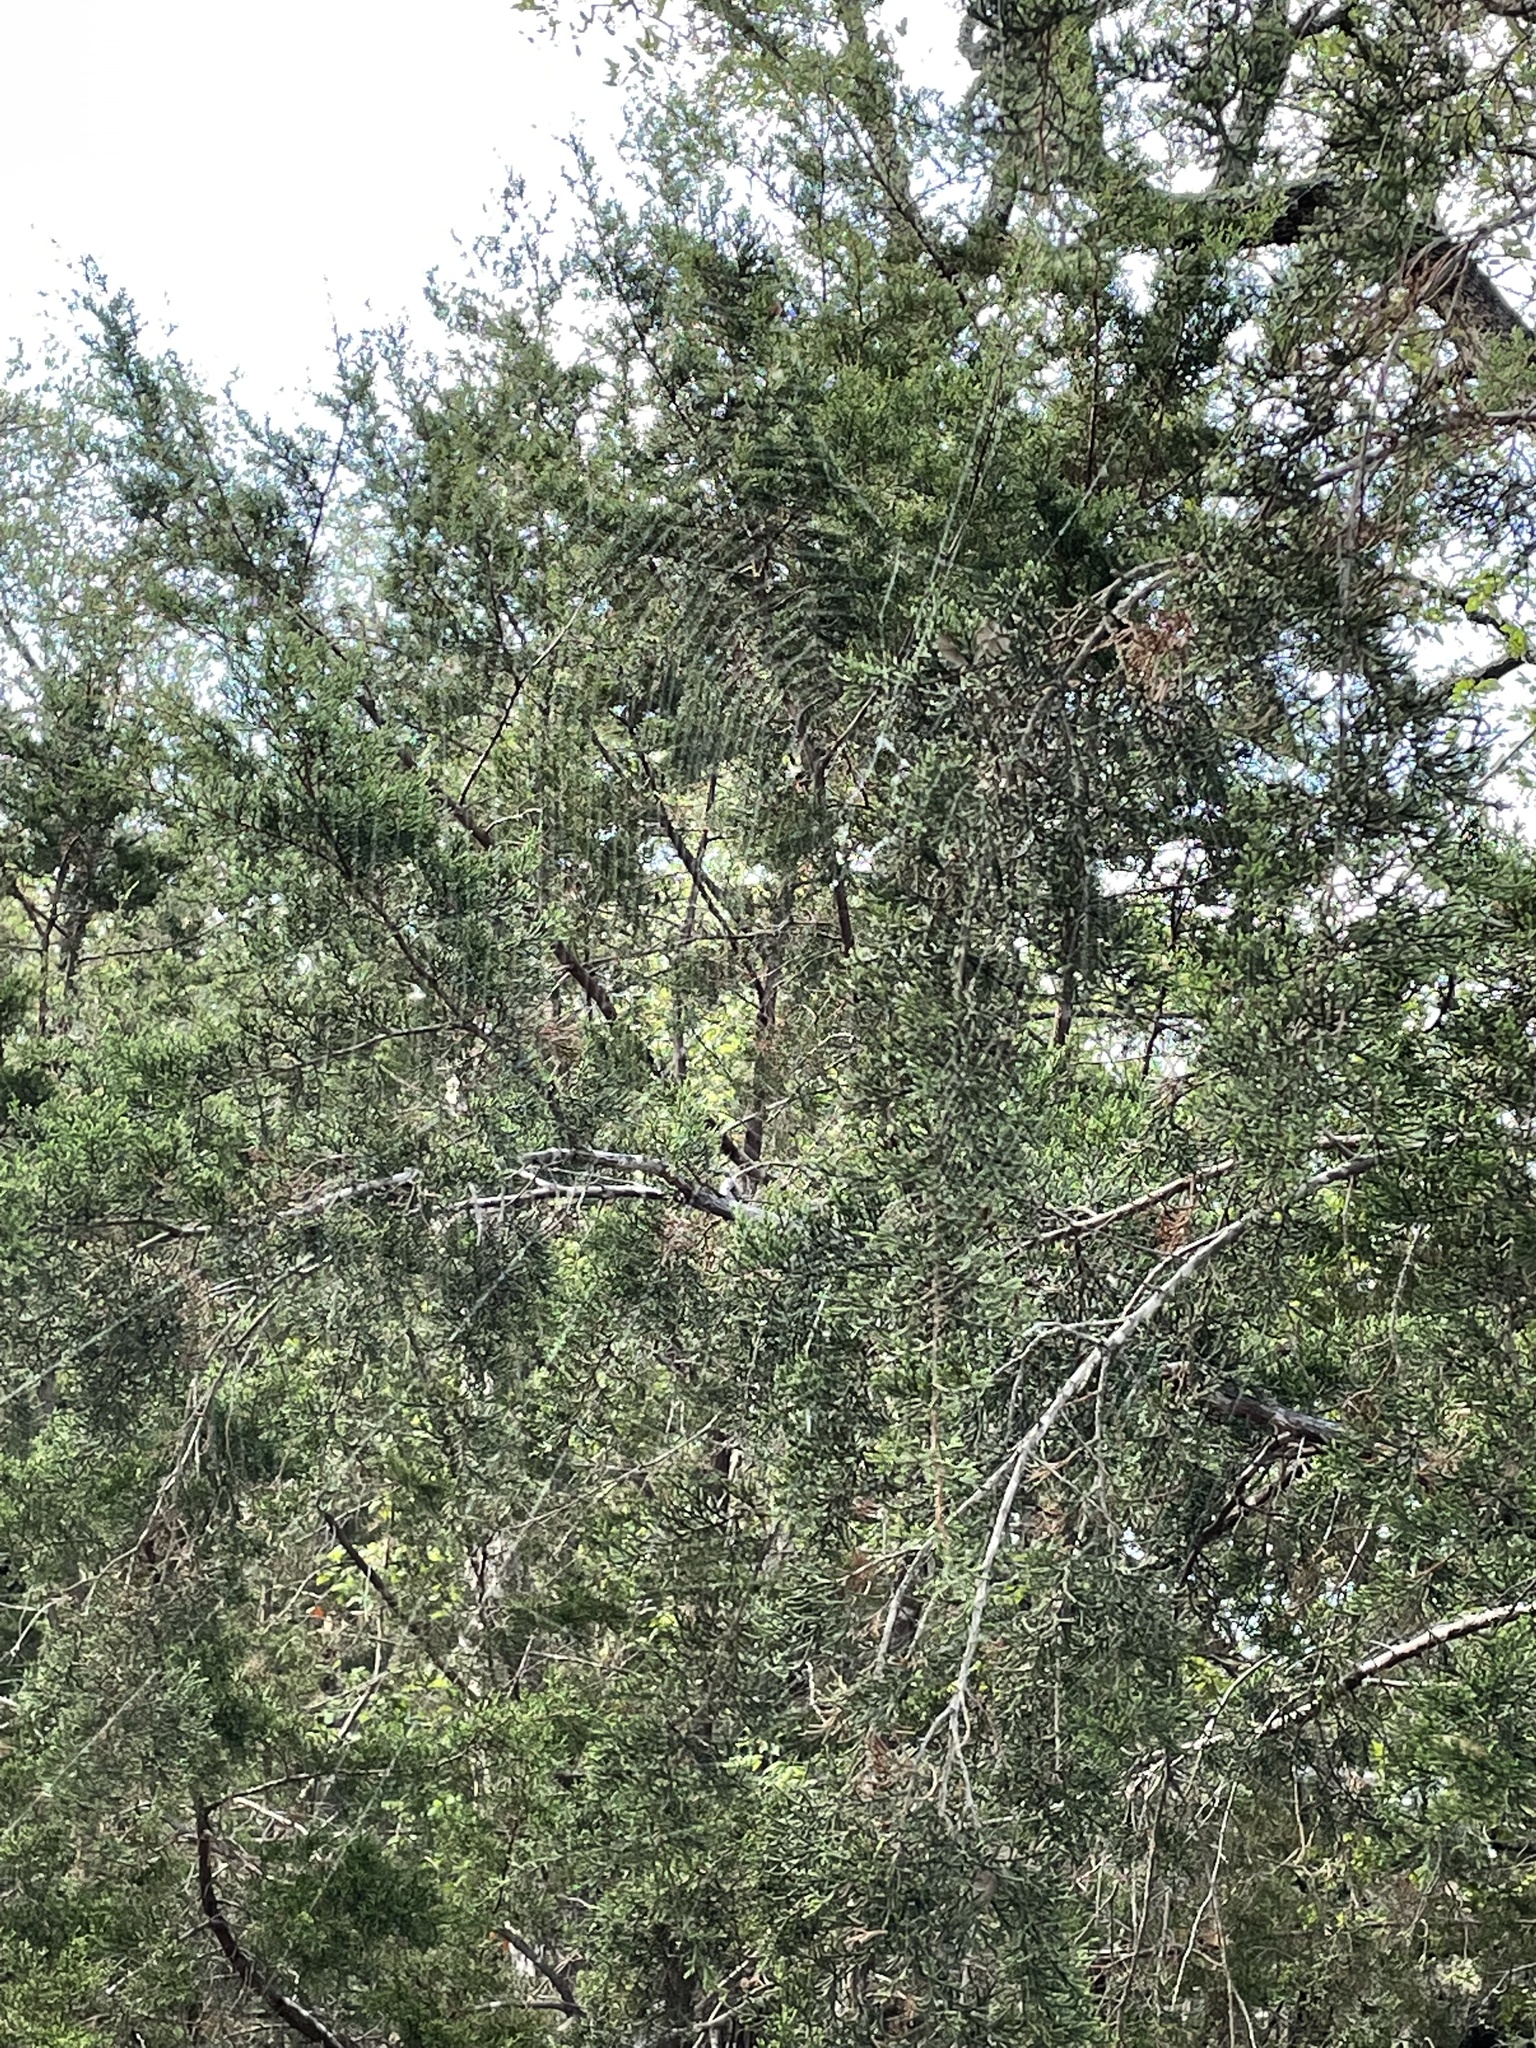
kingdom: Animalia
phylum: Arthropoda
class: Arachnida
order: Araneae
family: Araneidae
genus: Araneus
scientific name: Araneus bicentenarius
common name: Giant lichen orbweaver
